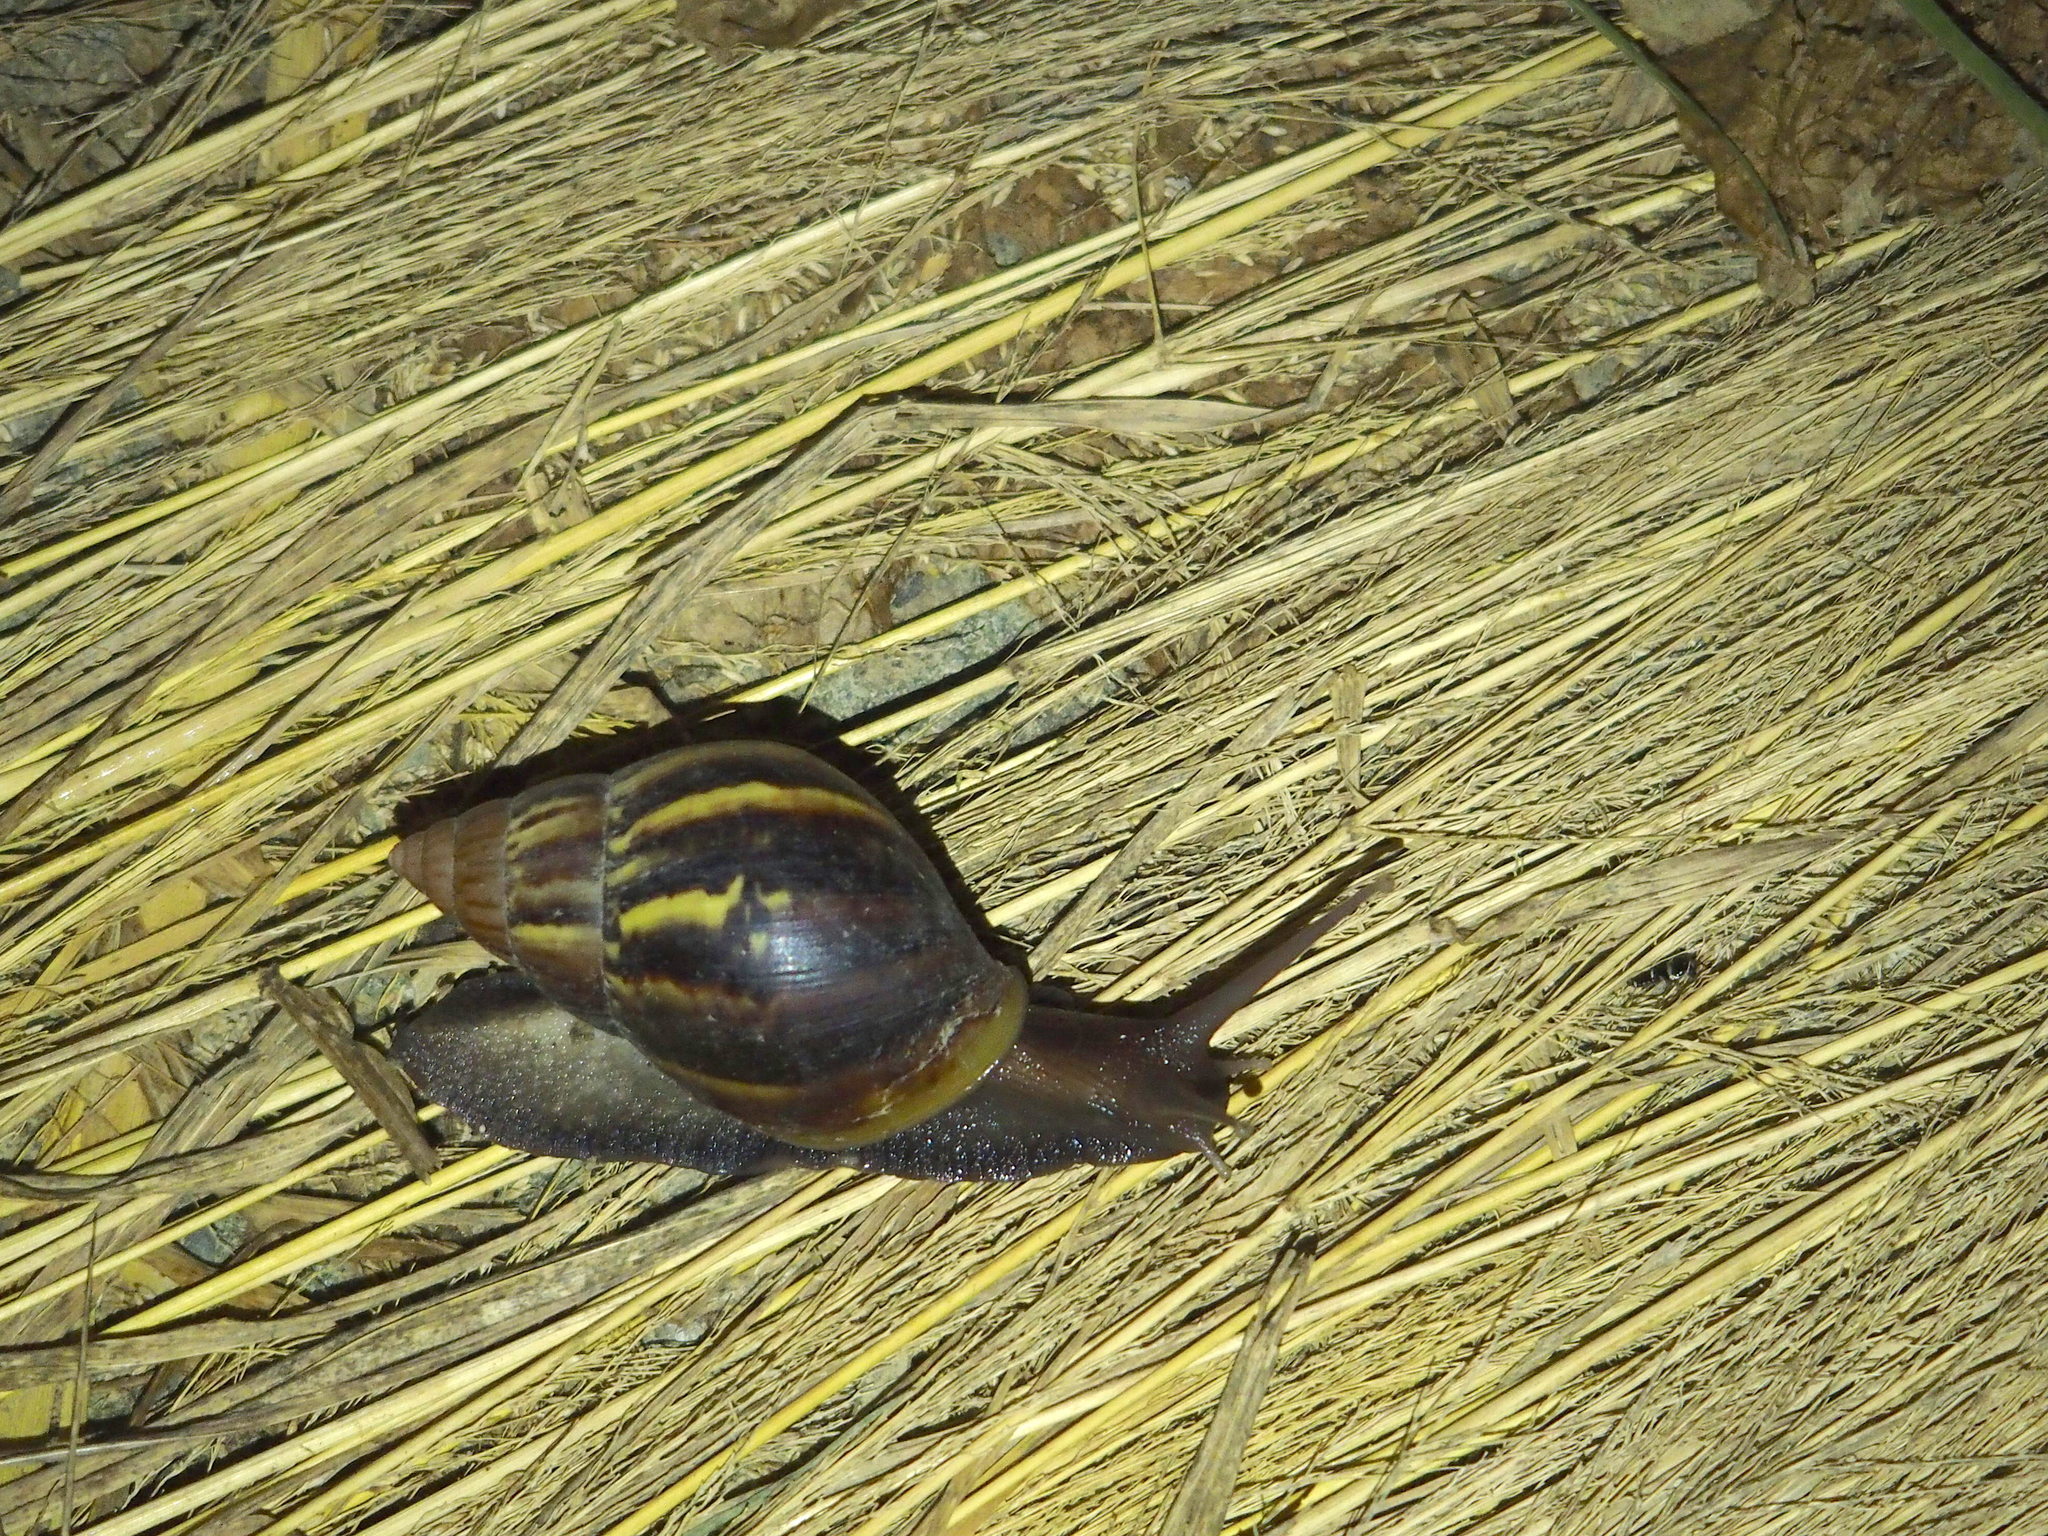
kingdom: Animalia
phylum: Mollusca
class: Gastropoda
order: Stylommatophora
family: Achatinidae
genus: Lissachatina
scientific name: Lissachatina fulica
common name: Giant african snail
